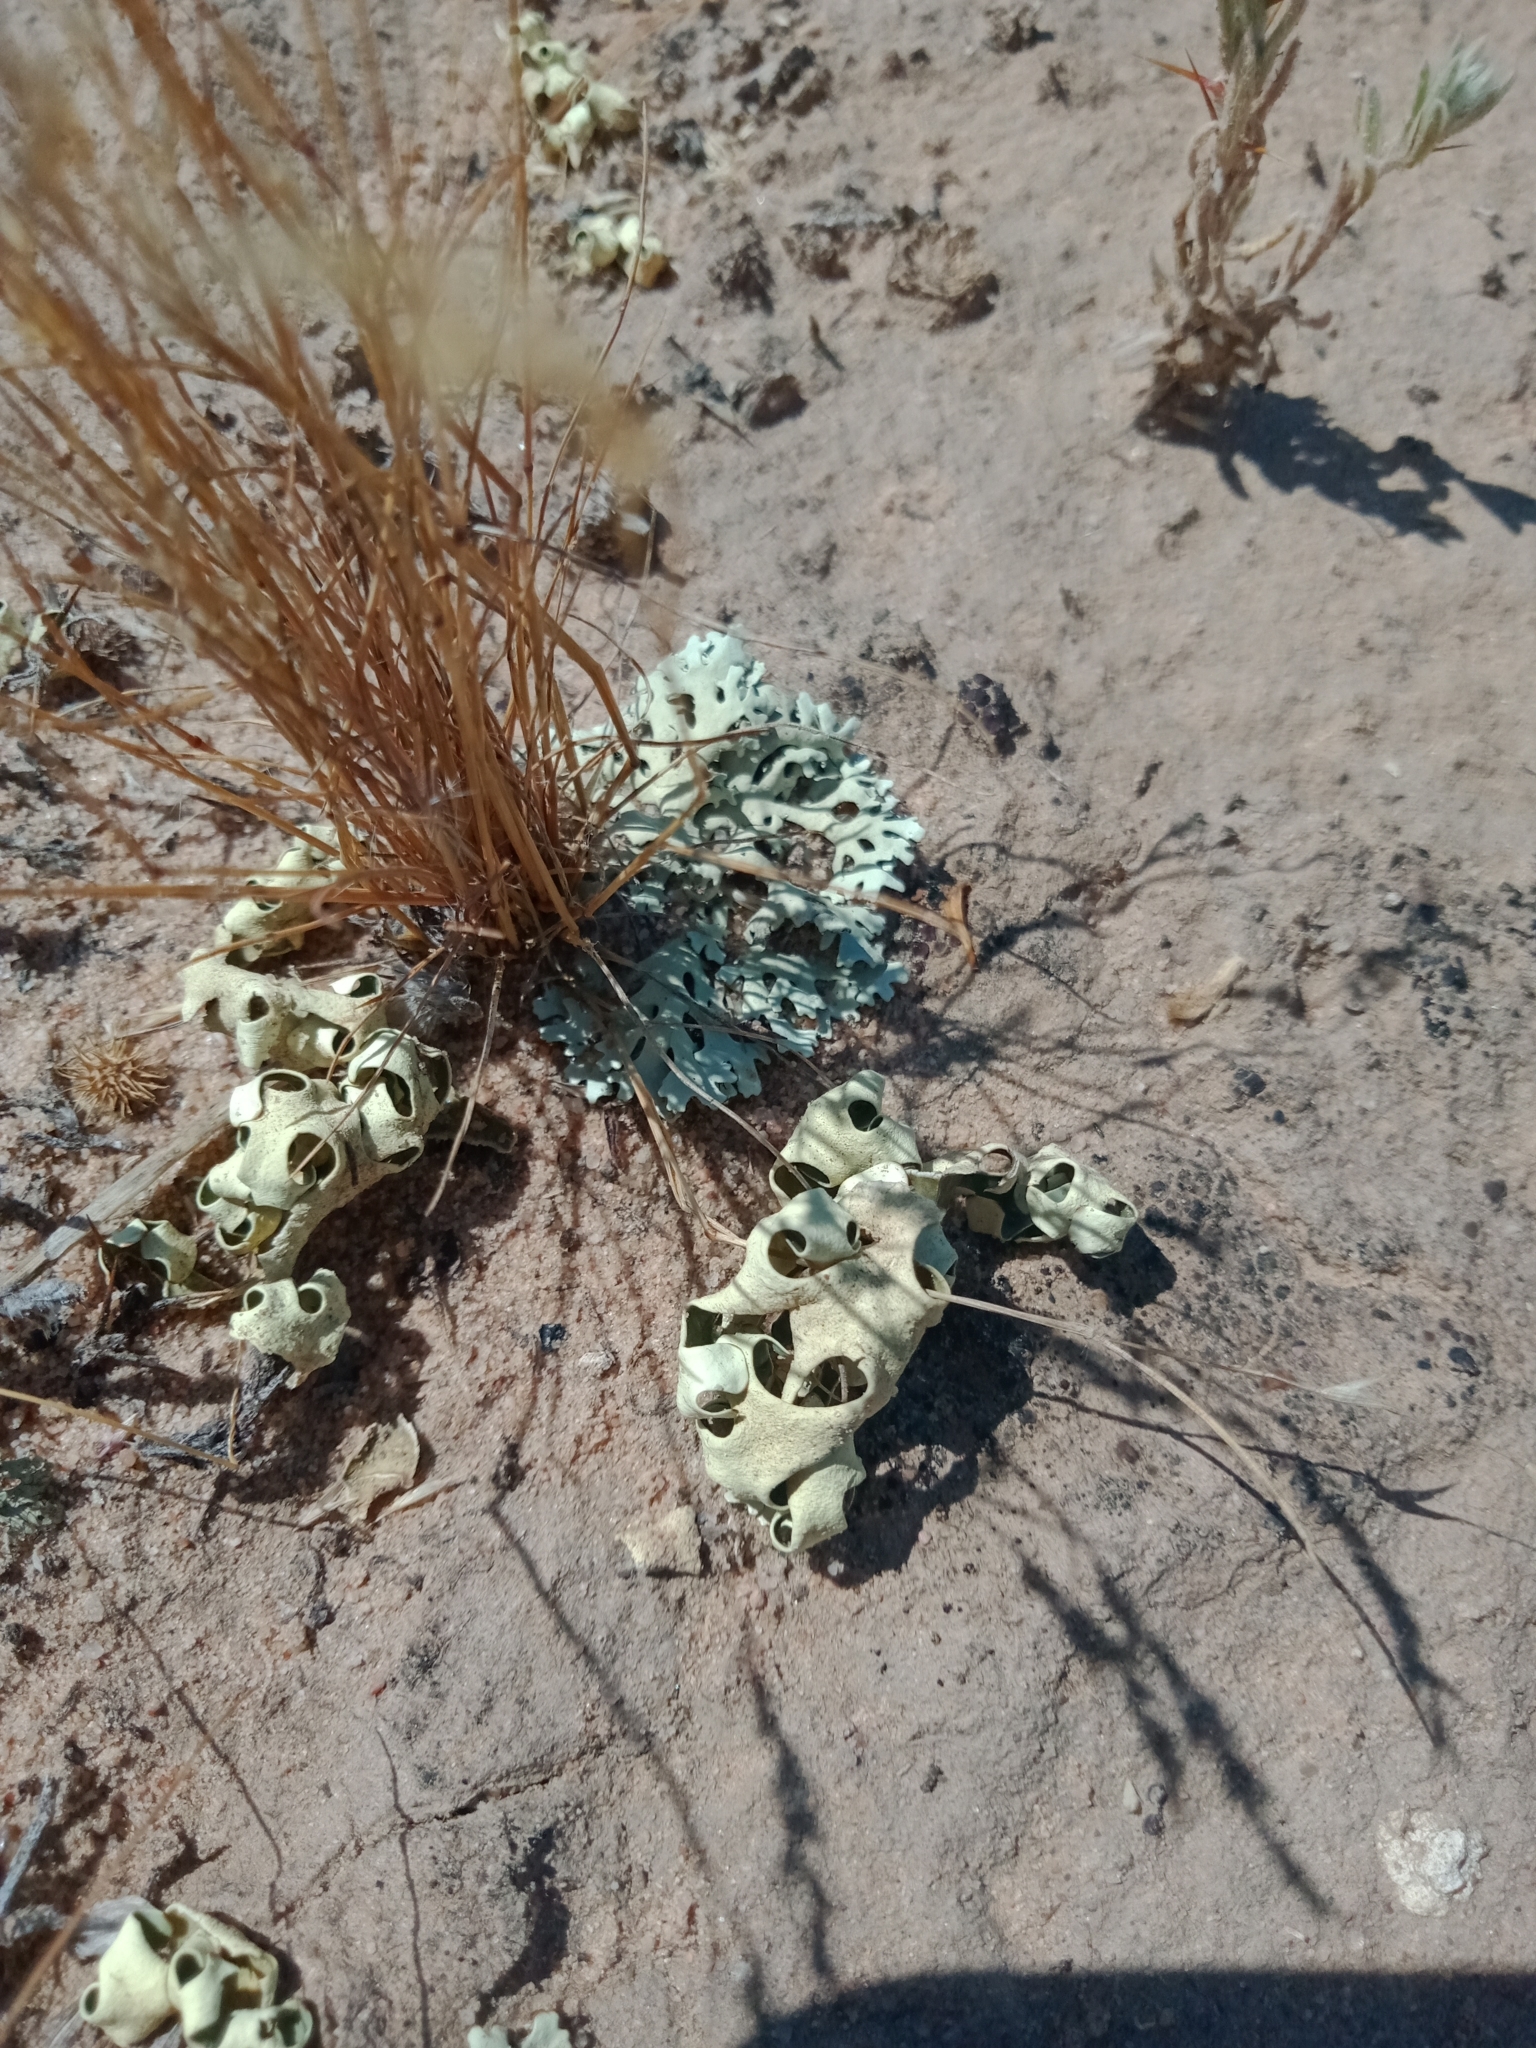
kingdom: Fungi
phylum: Ascomycota
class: Lecanoromycetes
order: Lecanorales
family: Parmeliaceae
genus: Xanthoparmelia
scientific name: Xanthoparmelia semiviridis
